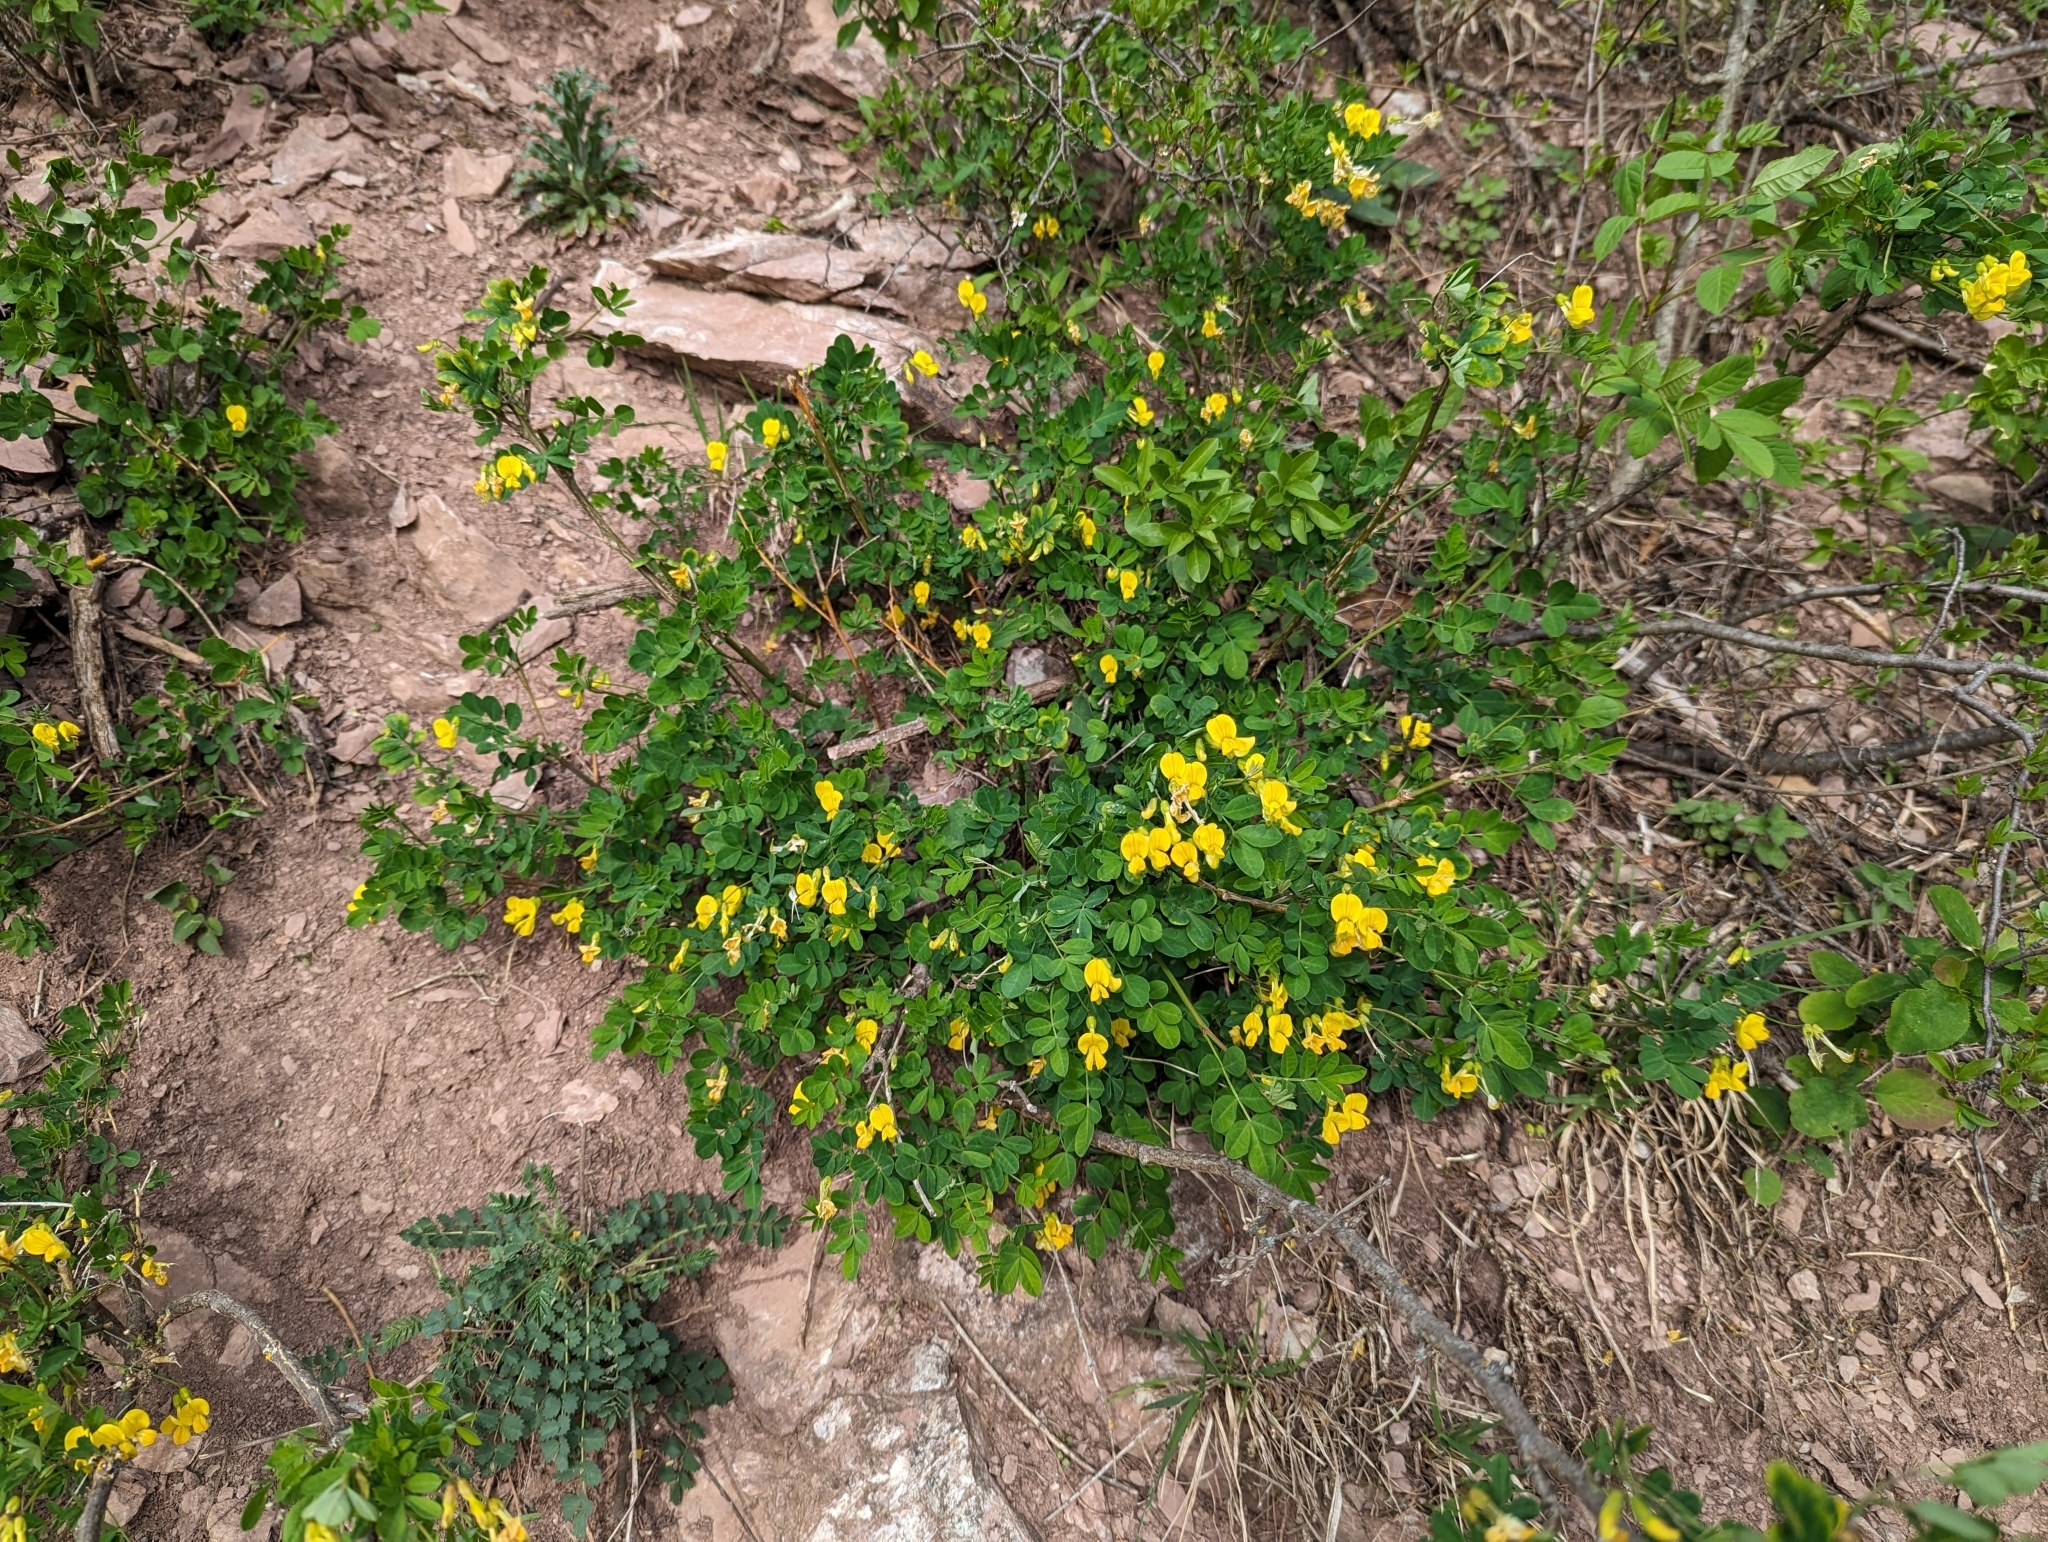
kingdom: Plantae
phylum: Tracheophyta
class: Magnoliopsida
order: Fabales
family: Fabaceae
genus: Hippocrepis
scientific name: Hippocrepis emerus
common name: Scorpion senna
